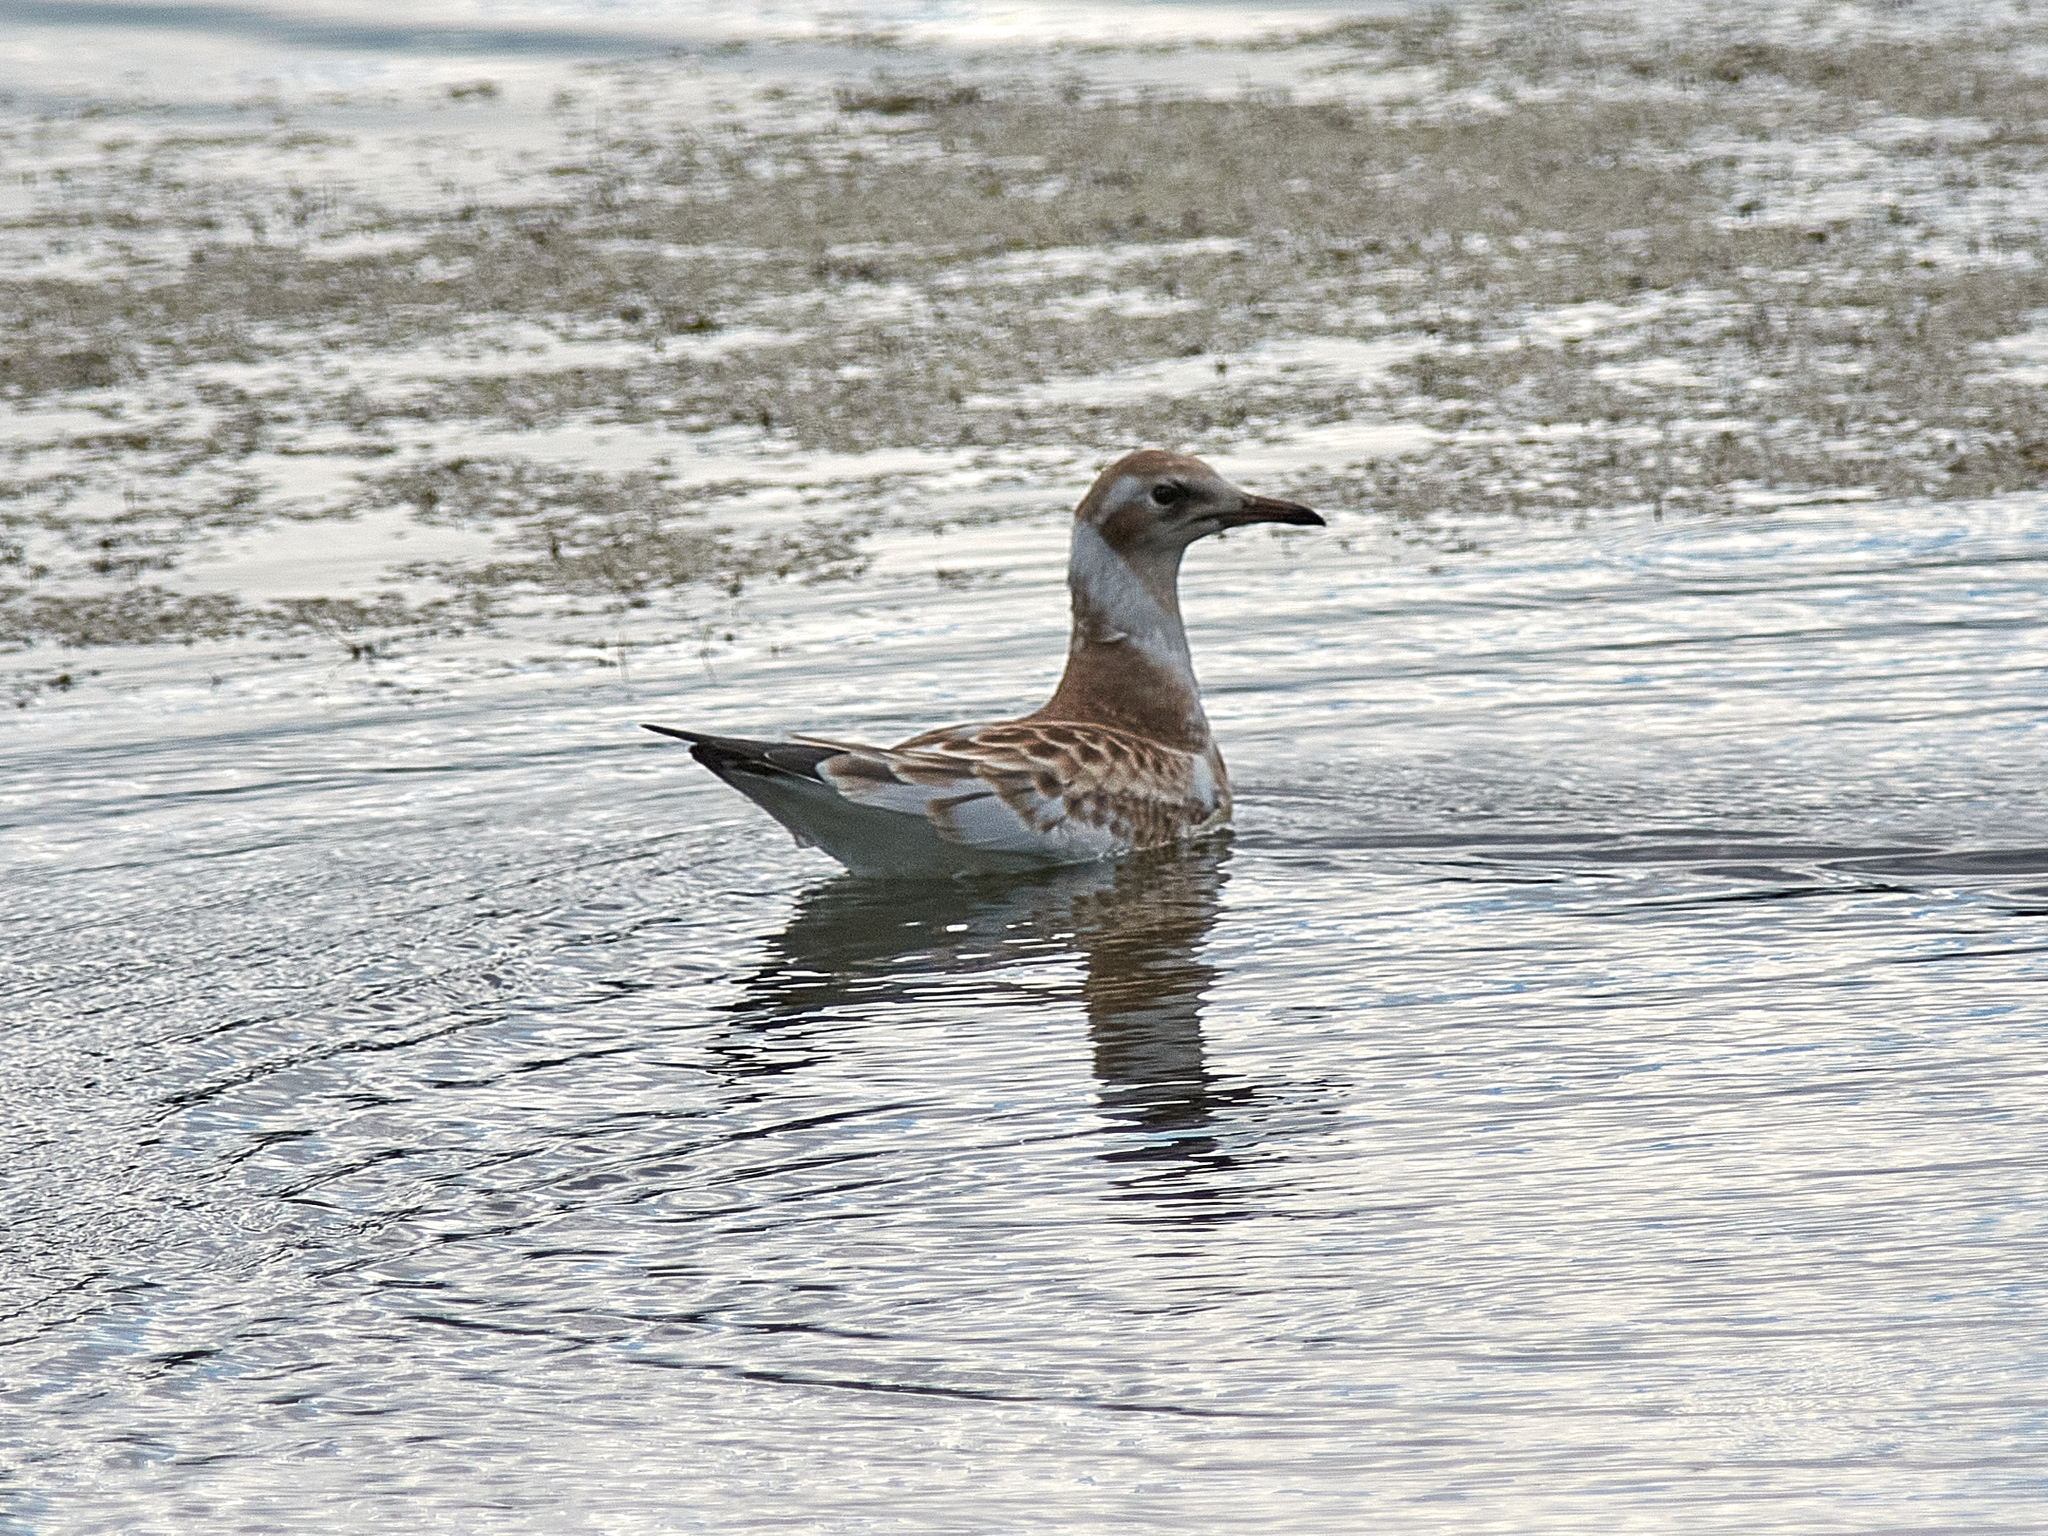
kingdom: Animalia
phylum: Chordata
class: Aves
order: Charadriiformes
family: Laridae
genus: Chroicocephalus
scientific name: Chroicocephalus ridibundus
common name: Black-headed gull
